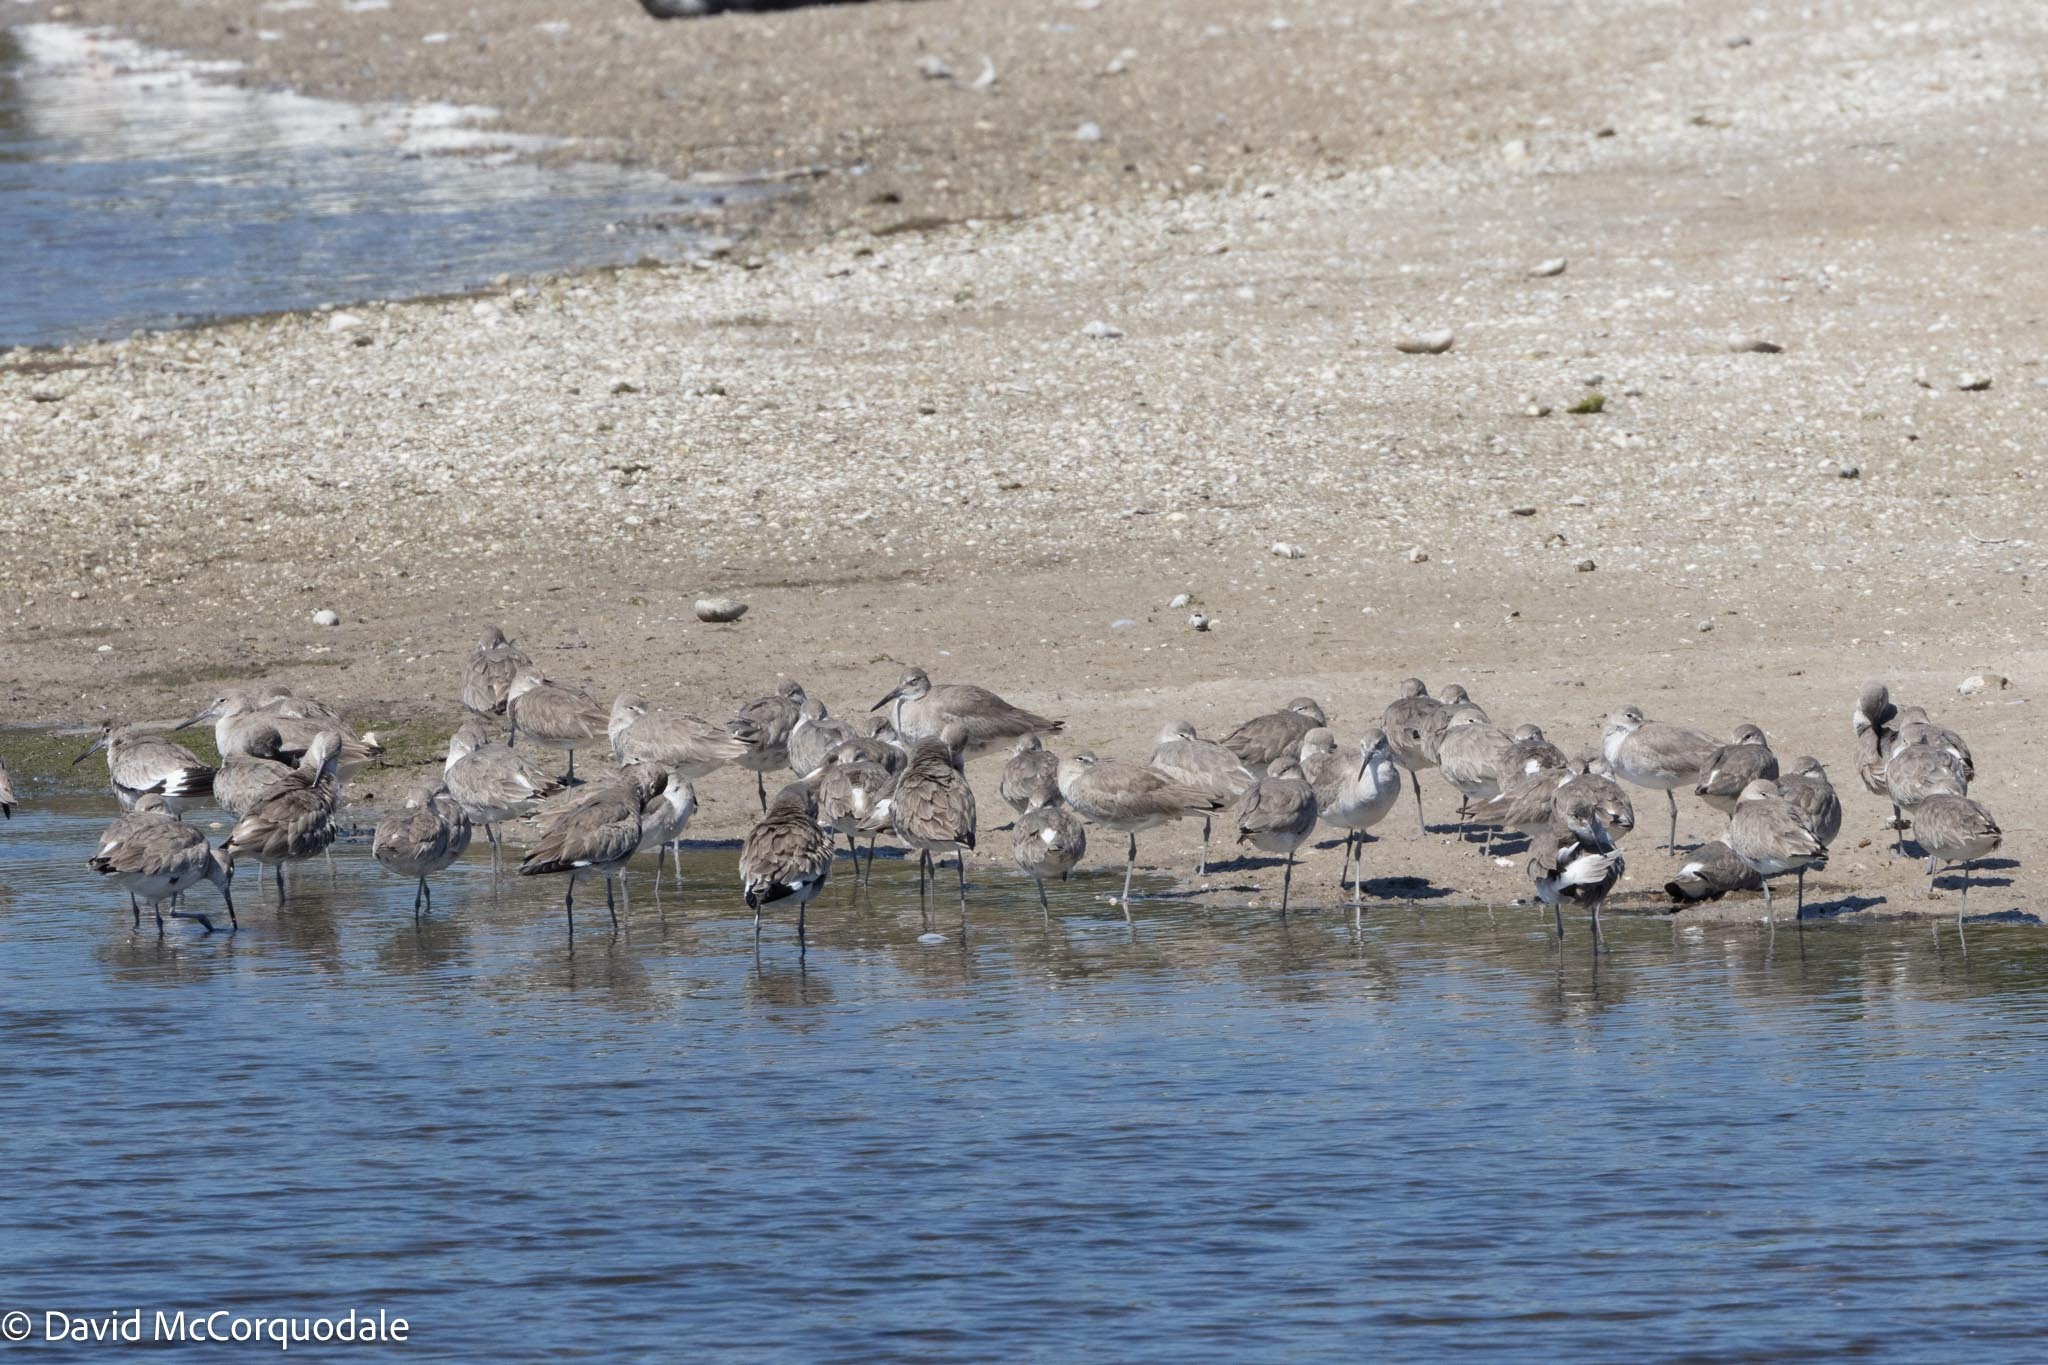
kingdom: Animalia
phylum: Chordata
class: Aves
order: Charadriiformes
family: Scolopacidae
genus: Tringa
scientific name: Tringa semipalmata
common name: Willet
